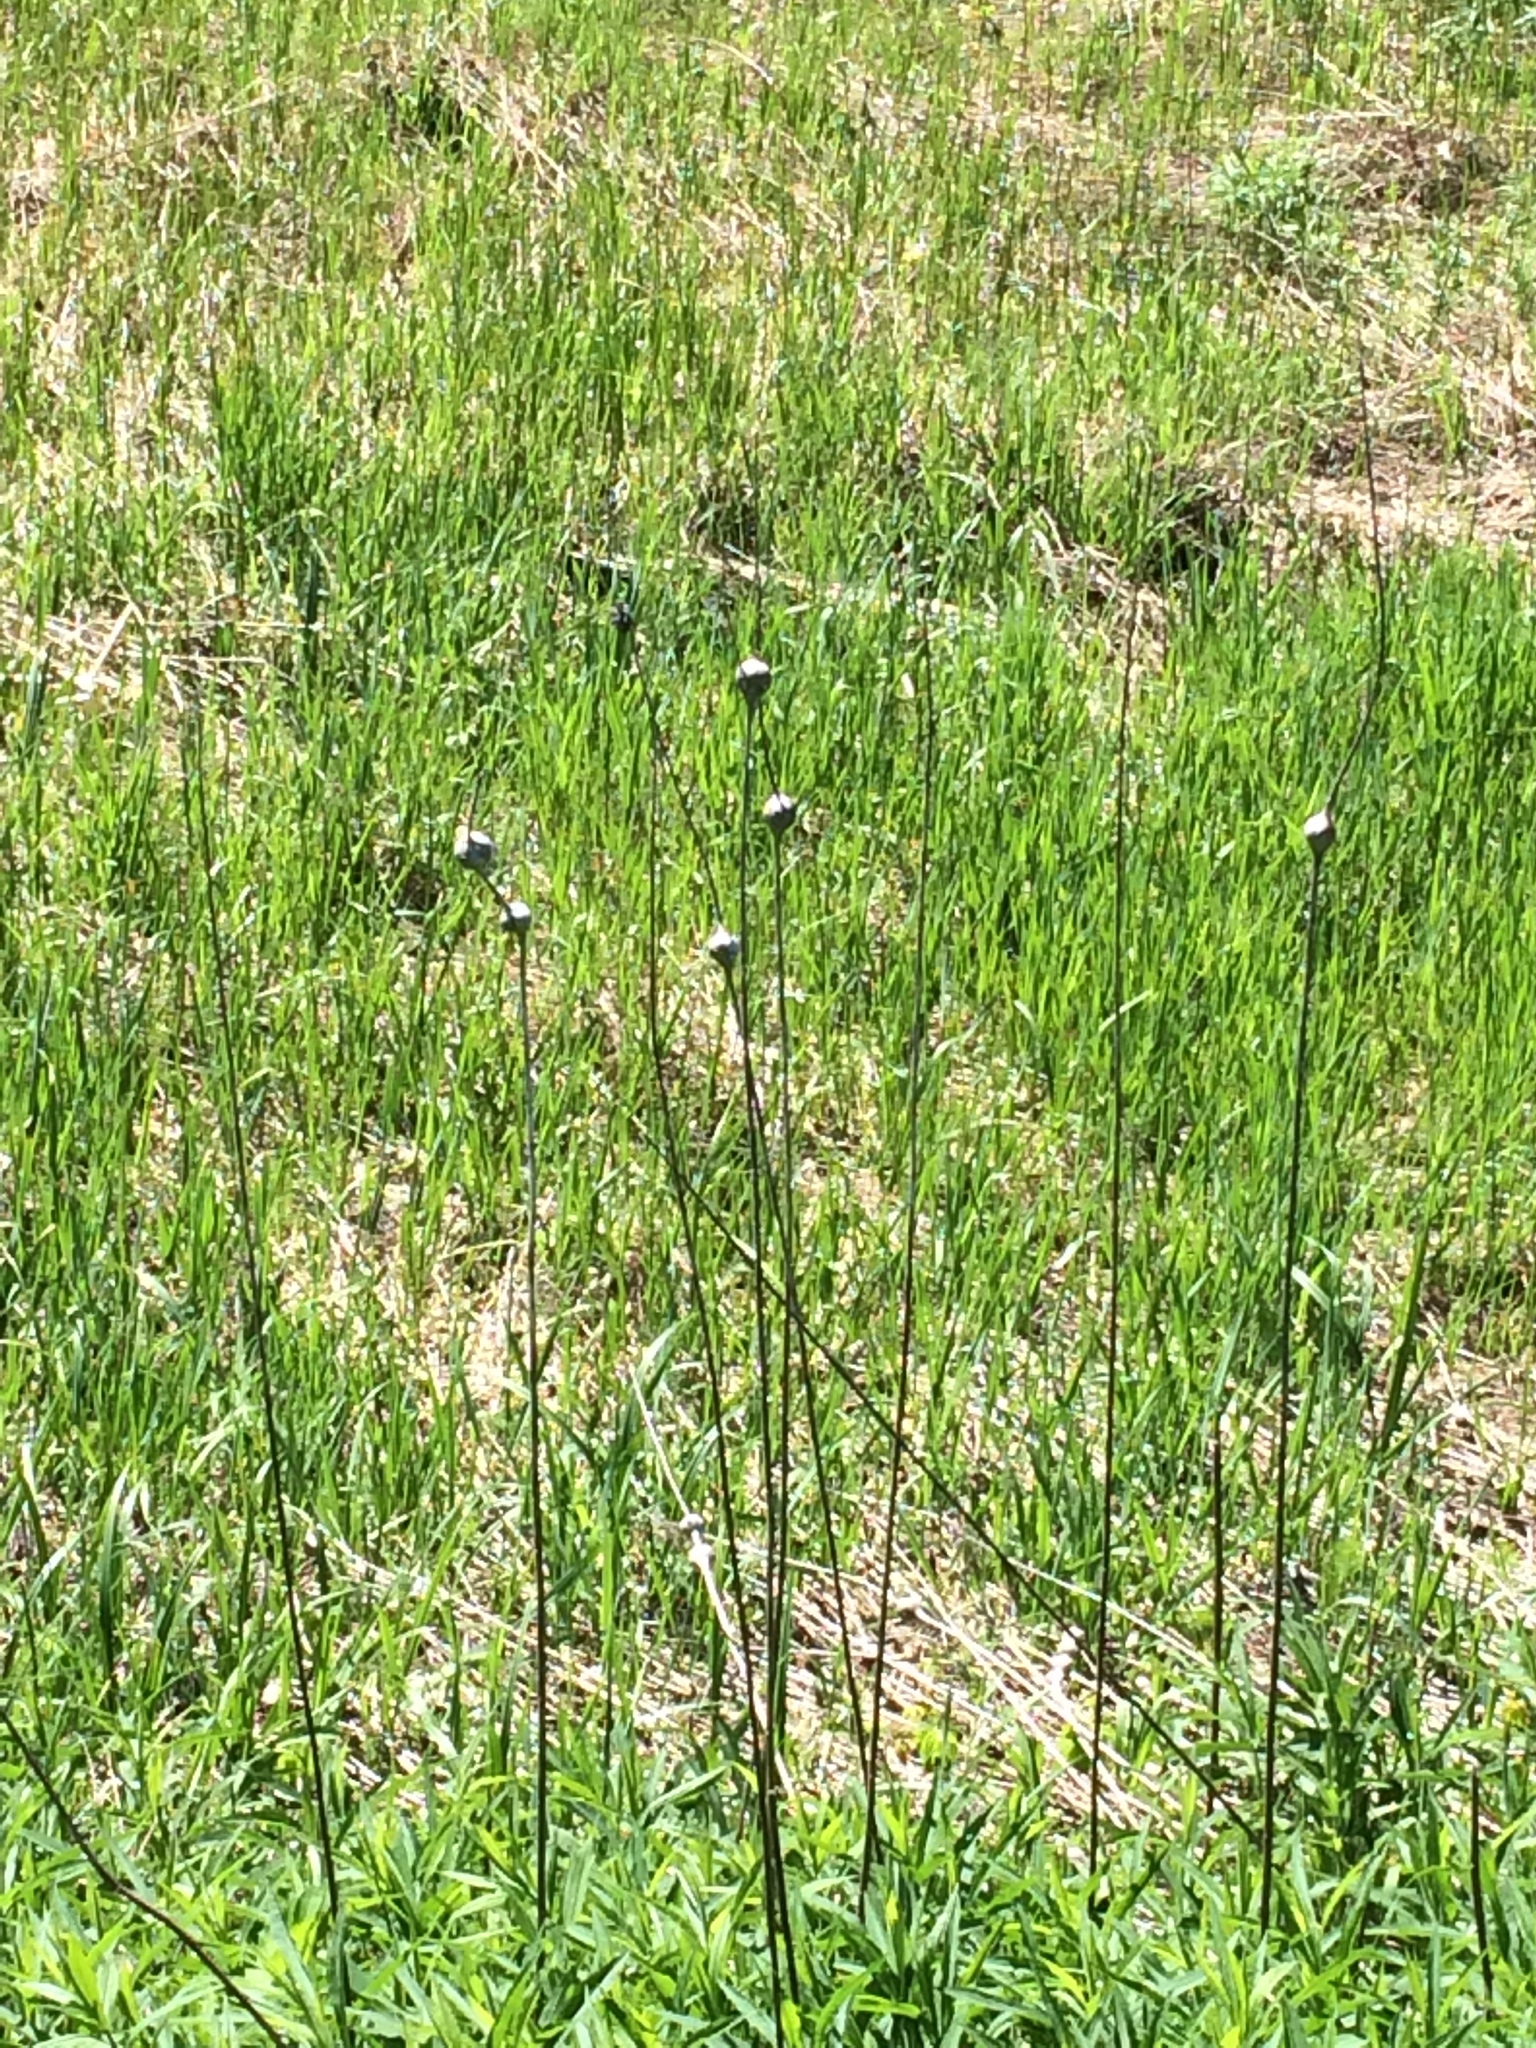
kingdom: Animalia
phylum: Arthropoda
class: Insecta
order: Diptera
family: Tephritidae
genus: Eurosta
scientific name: Eurosta solidaginis
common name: Goldenrod gall fly
